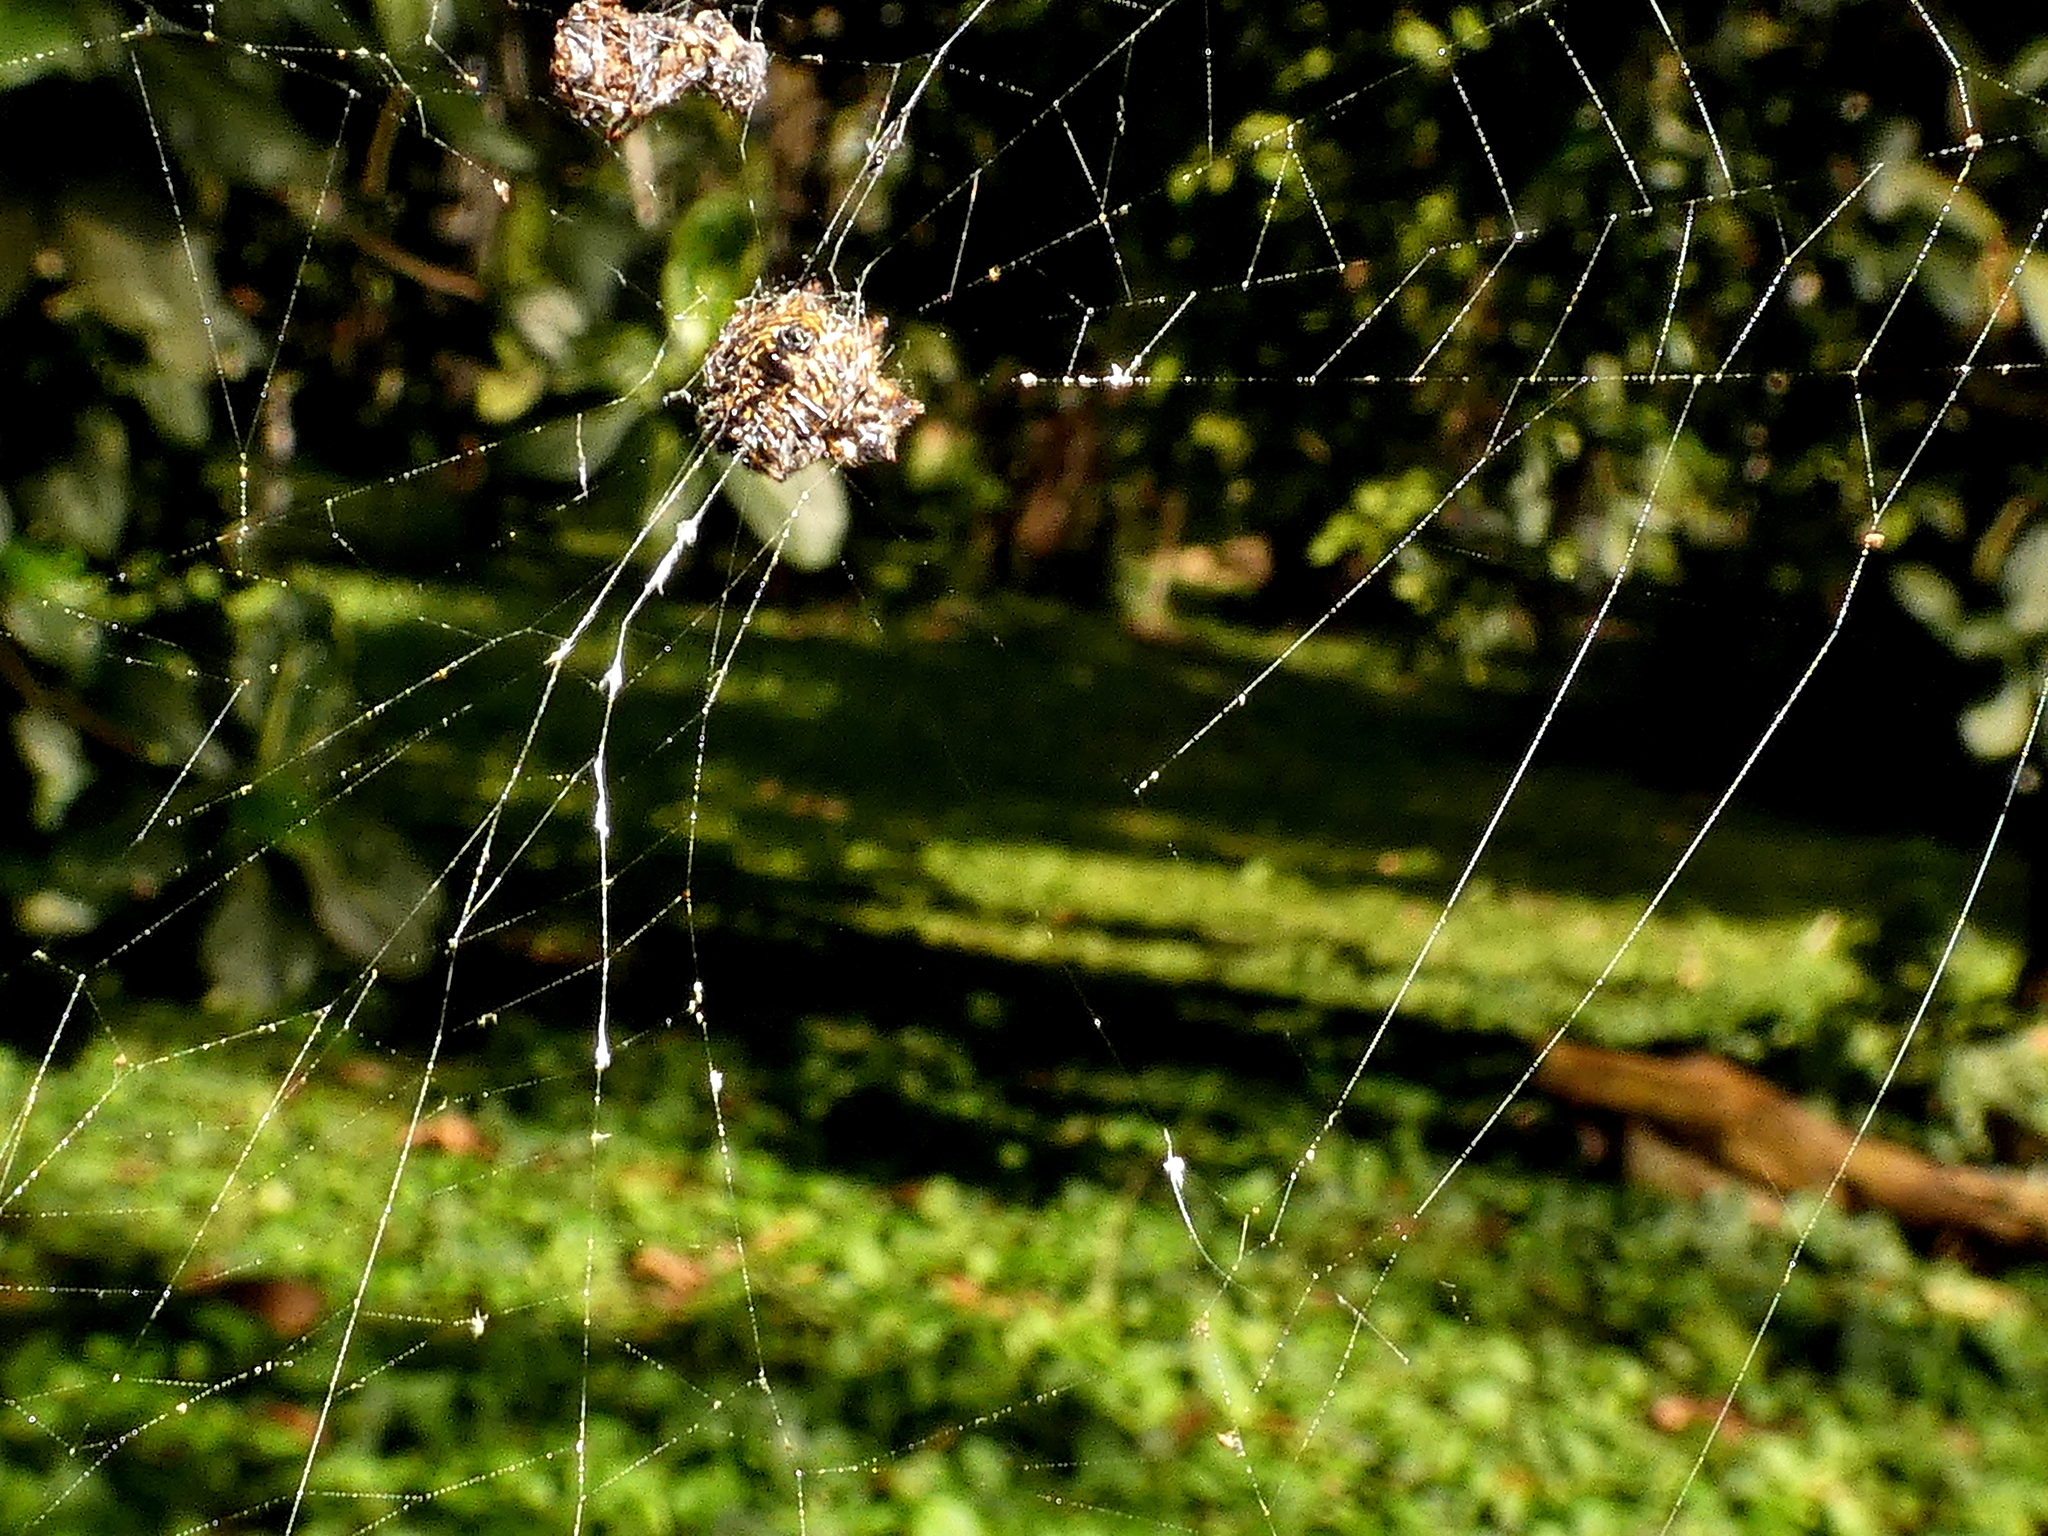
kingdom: Animalia
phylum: Arthropoda
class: Arachnida
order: Araneae
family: Araneidae
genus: Gasteracantha
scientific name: Gasteracantha cancriformis
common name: Orb weavers
